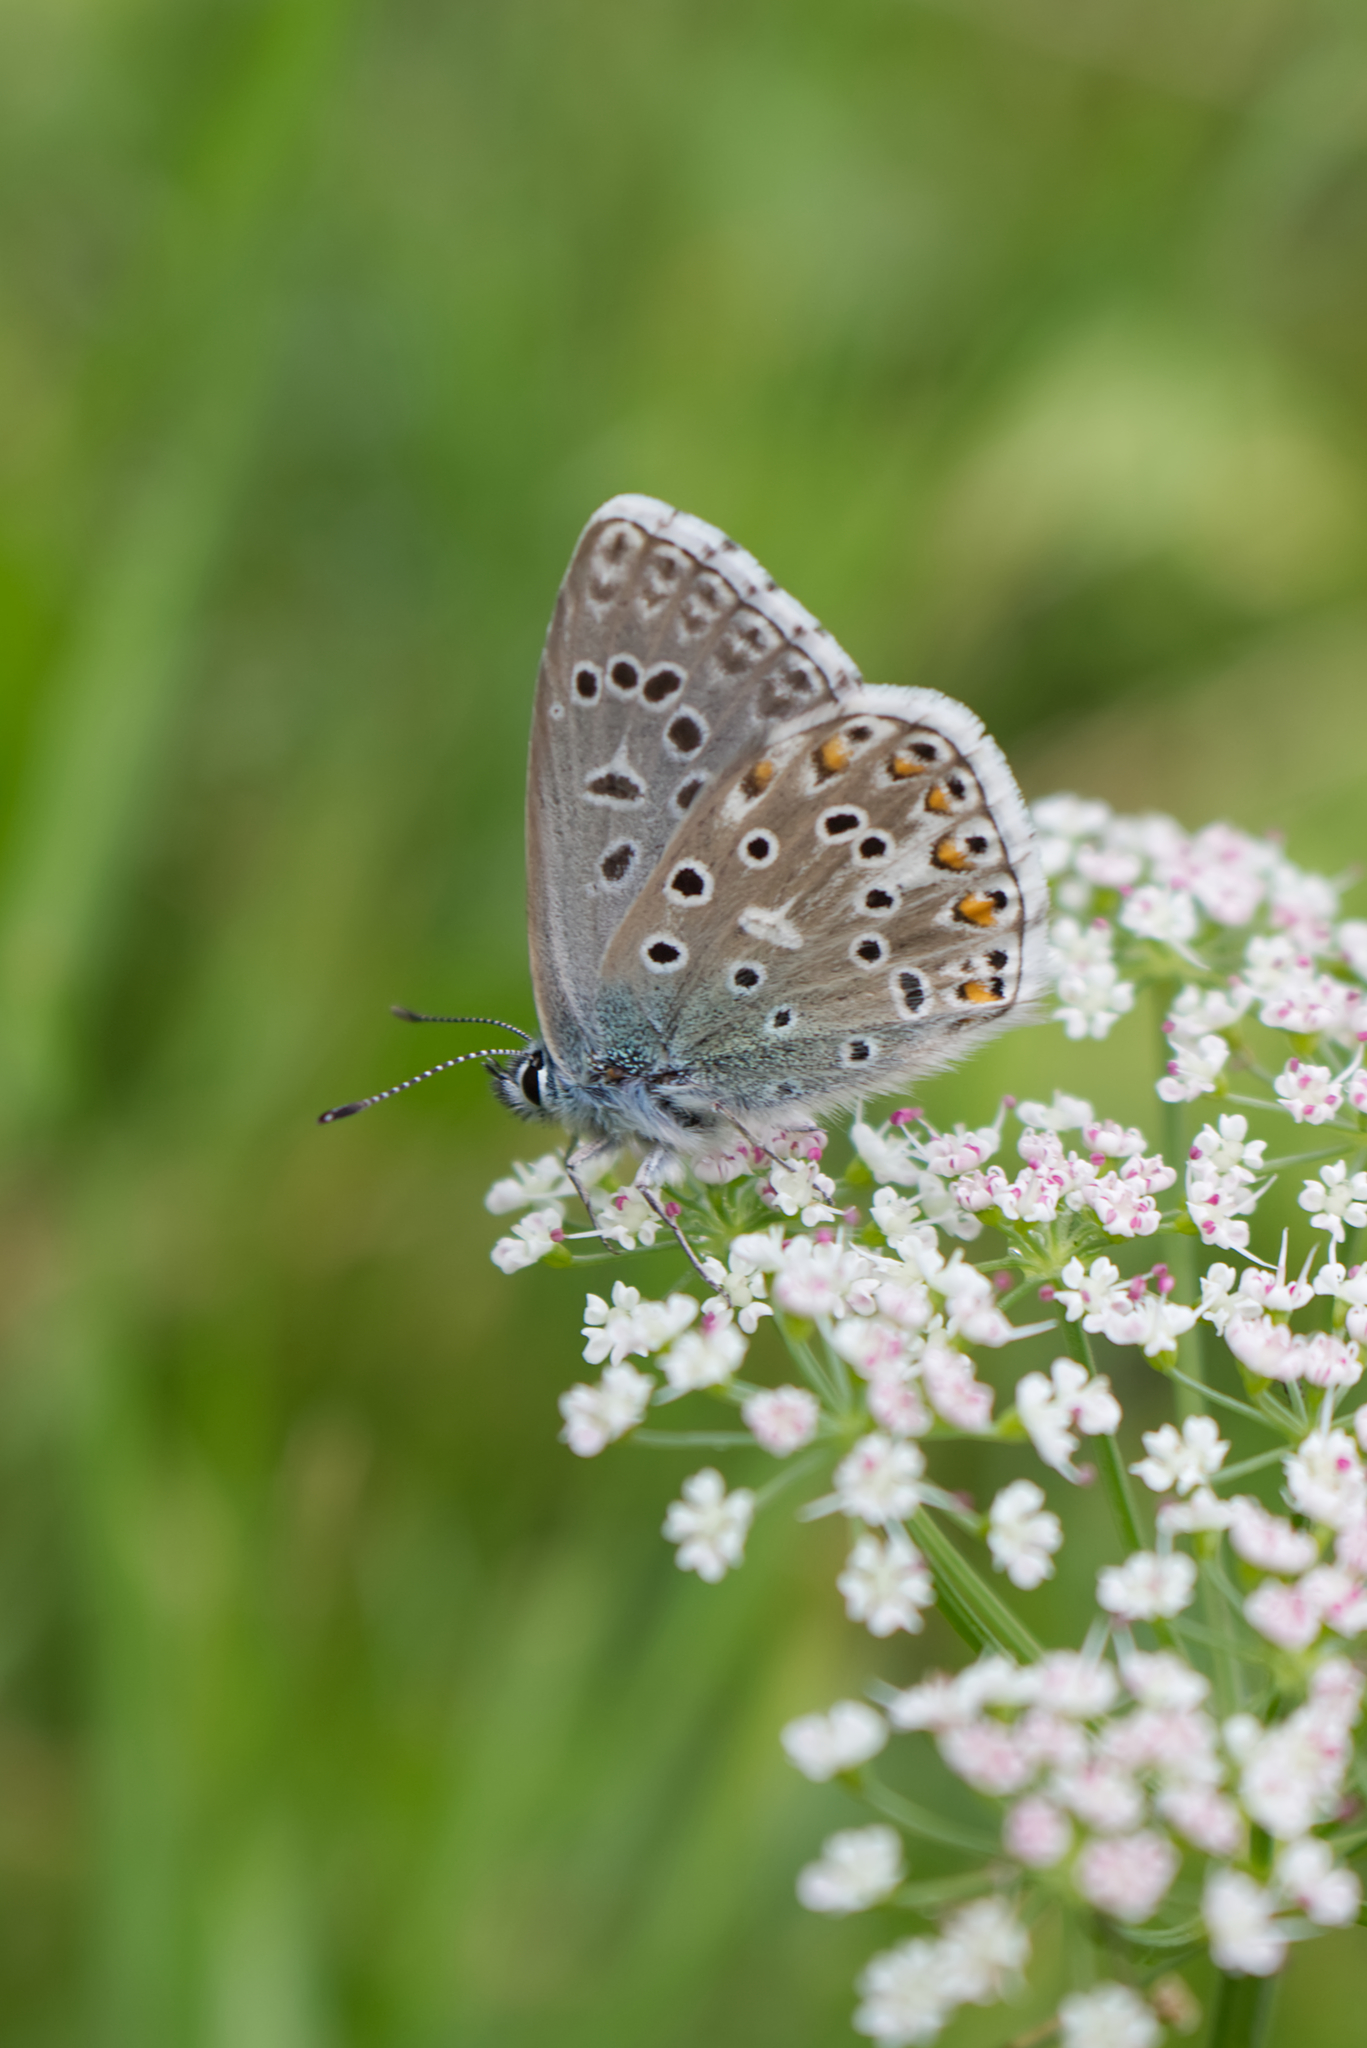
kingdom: Animalia
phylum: Arthropoda
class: Insecta
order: Lepidoptera
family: Lycaenidae
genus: Lysandra
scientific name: Lysandra bellargus
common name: Adonis blue
